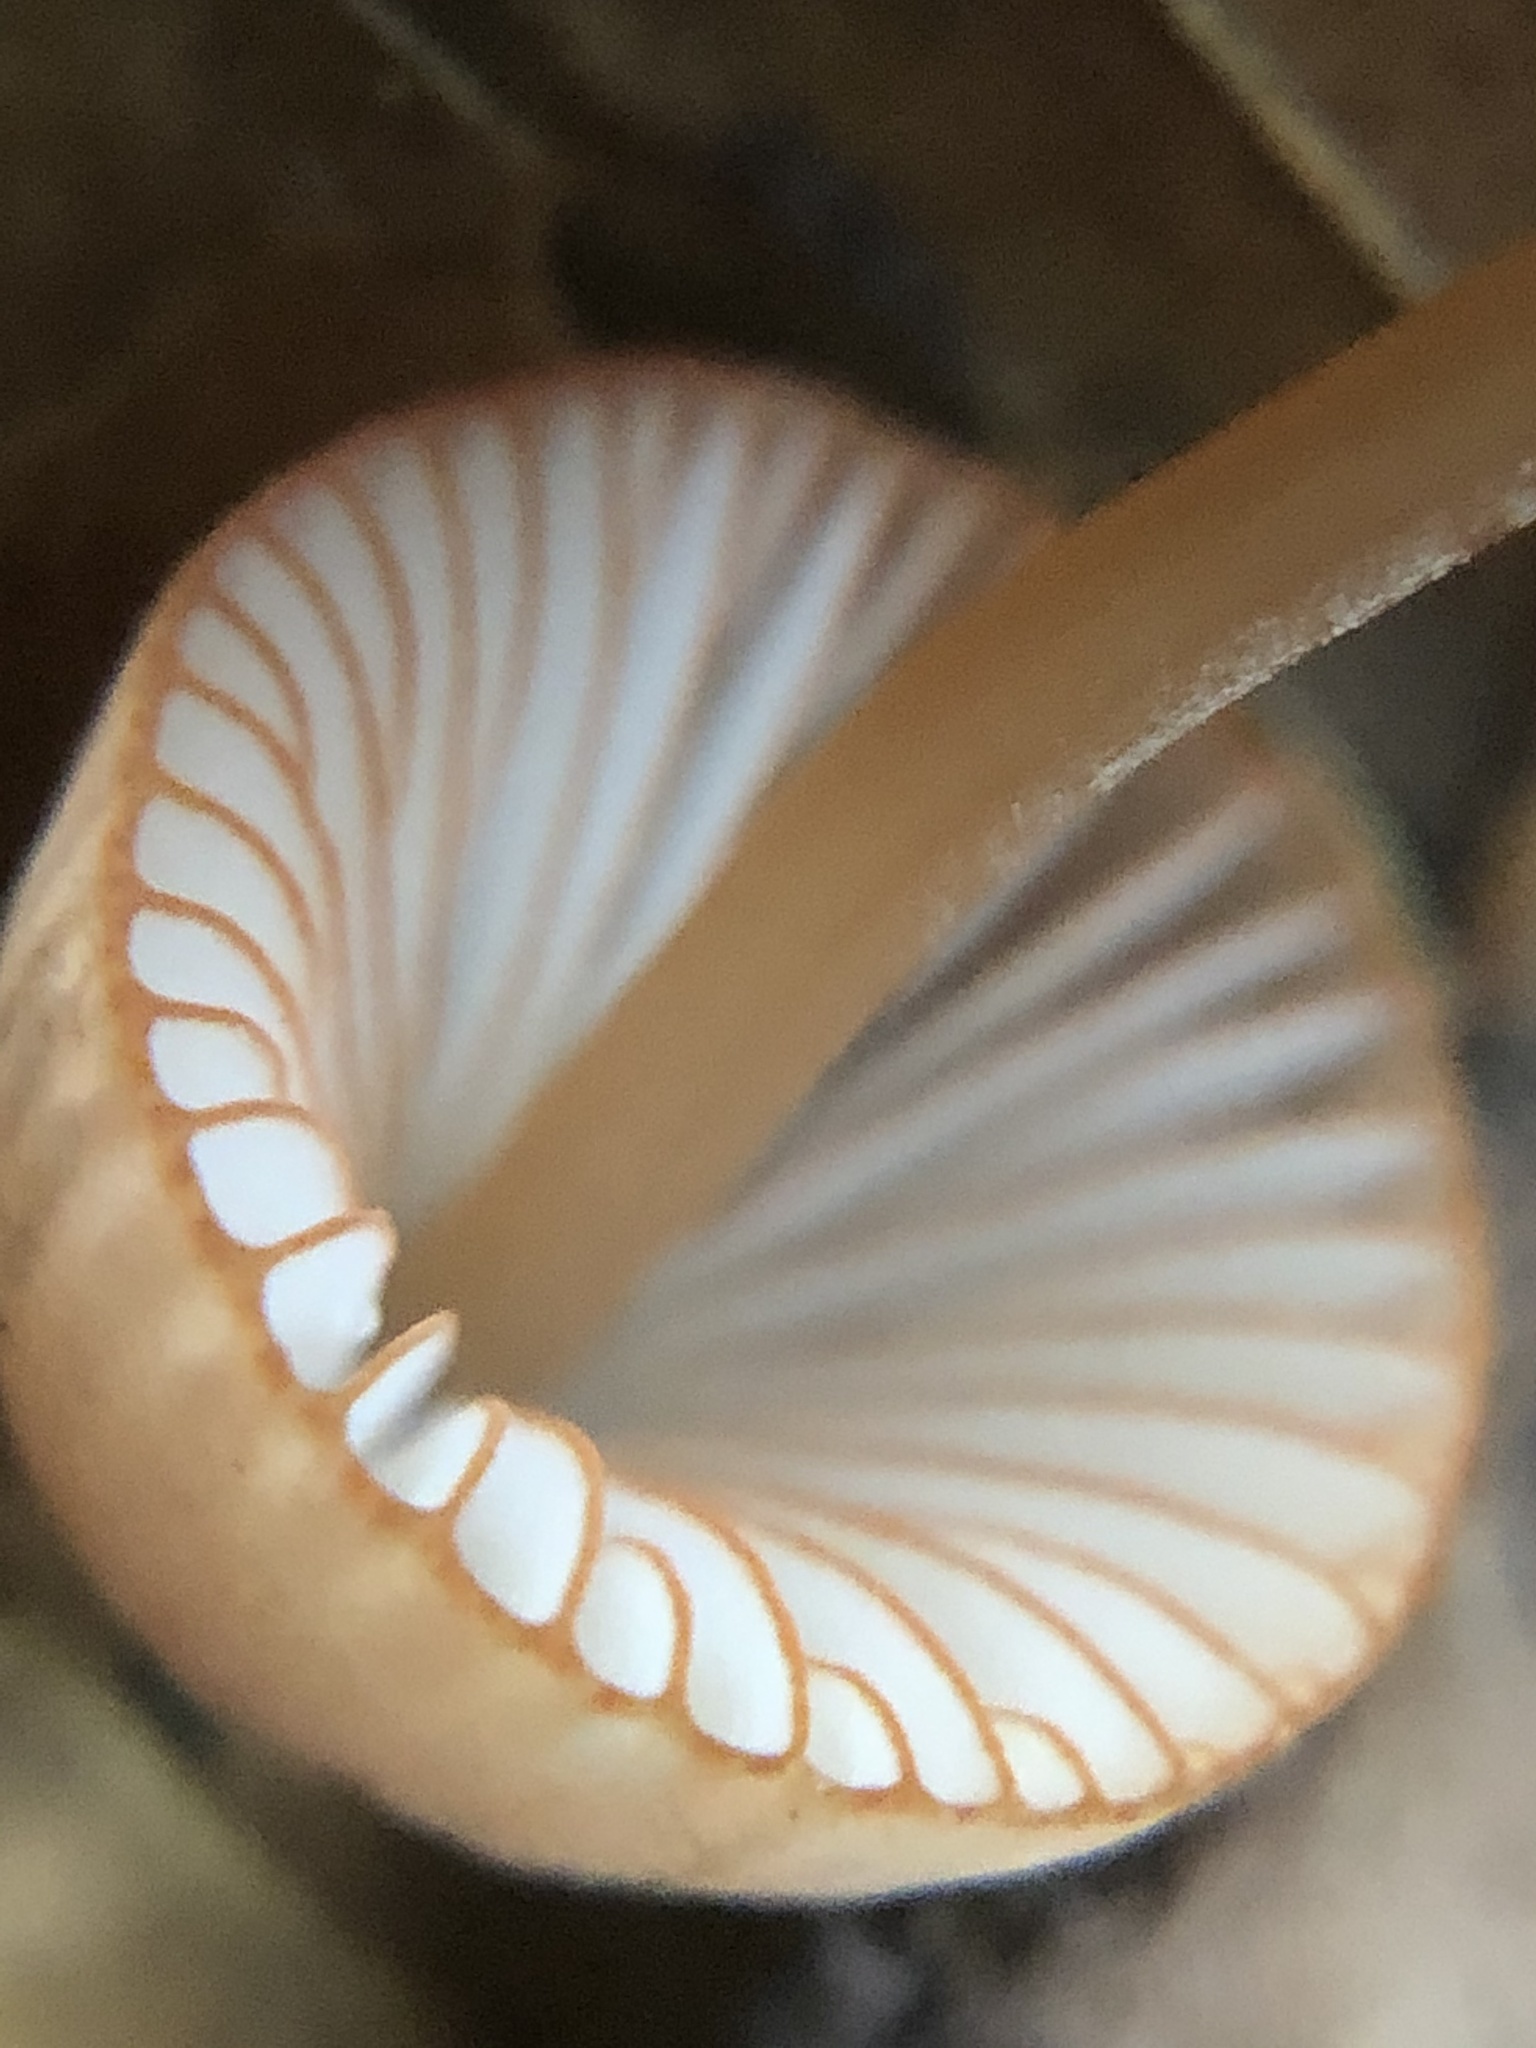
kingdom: Fungi
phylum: Basidiomycota
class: Agaricomycetes
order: Agaricales
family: Mycenaceae
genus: Mycena
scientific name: Mycena
